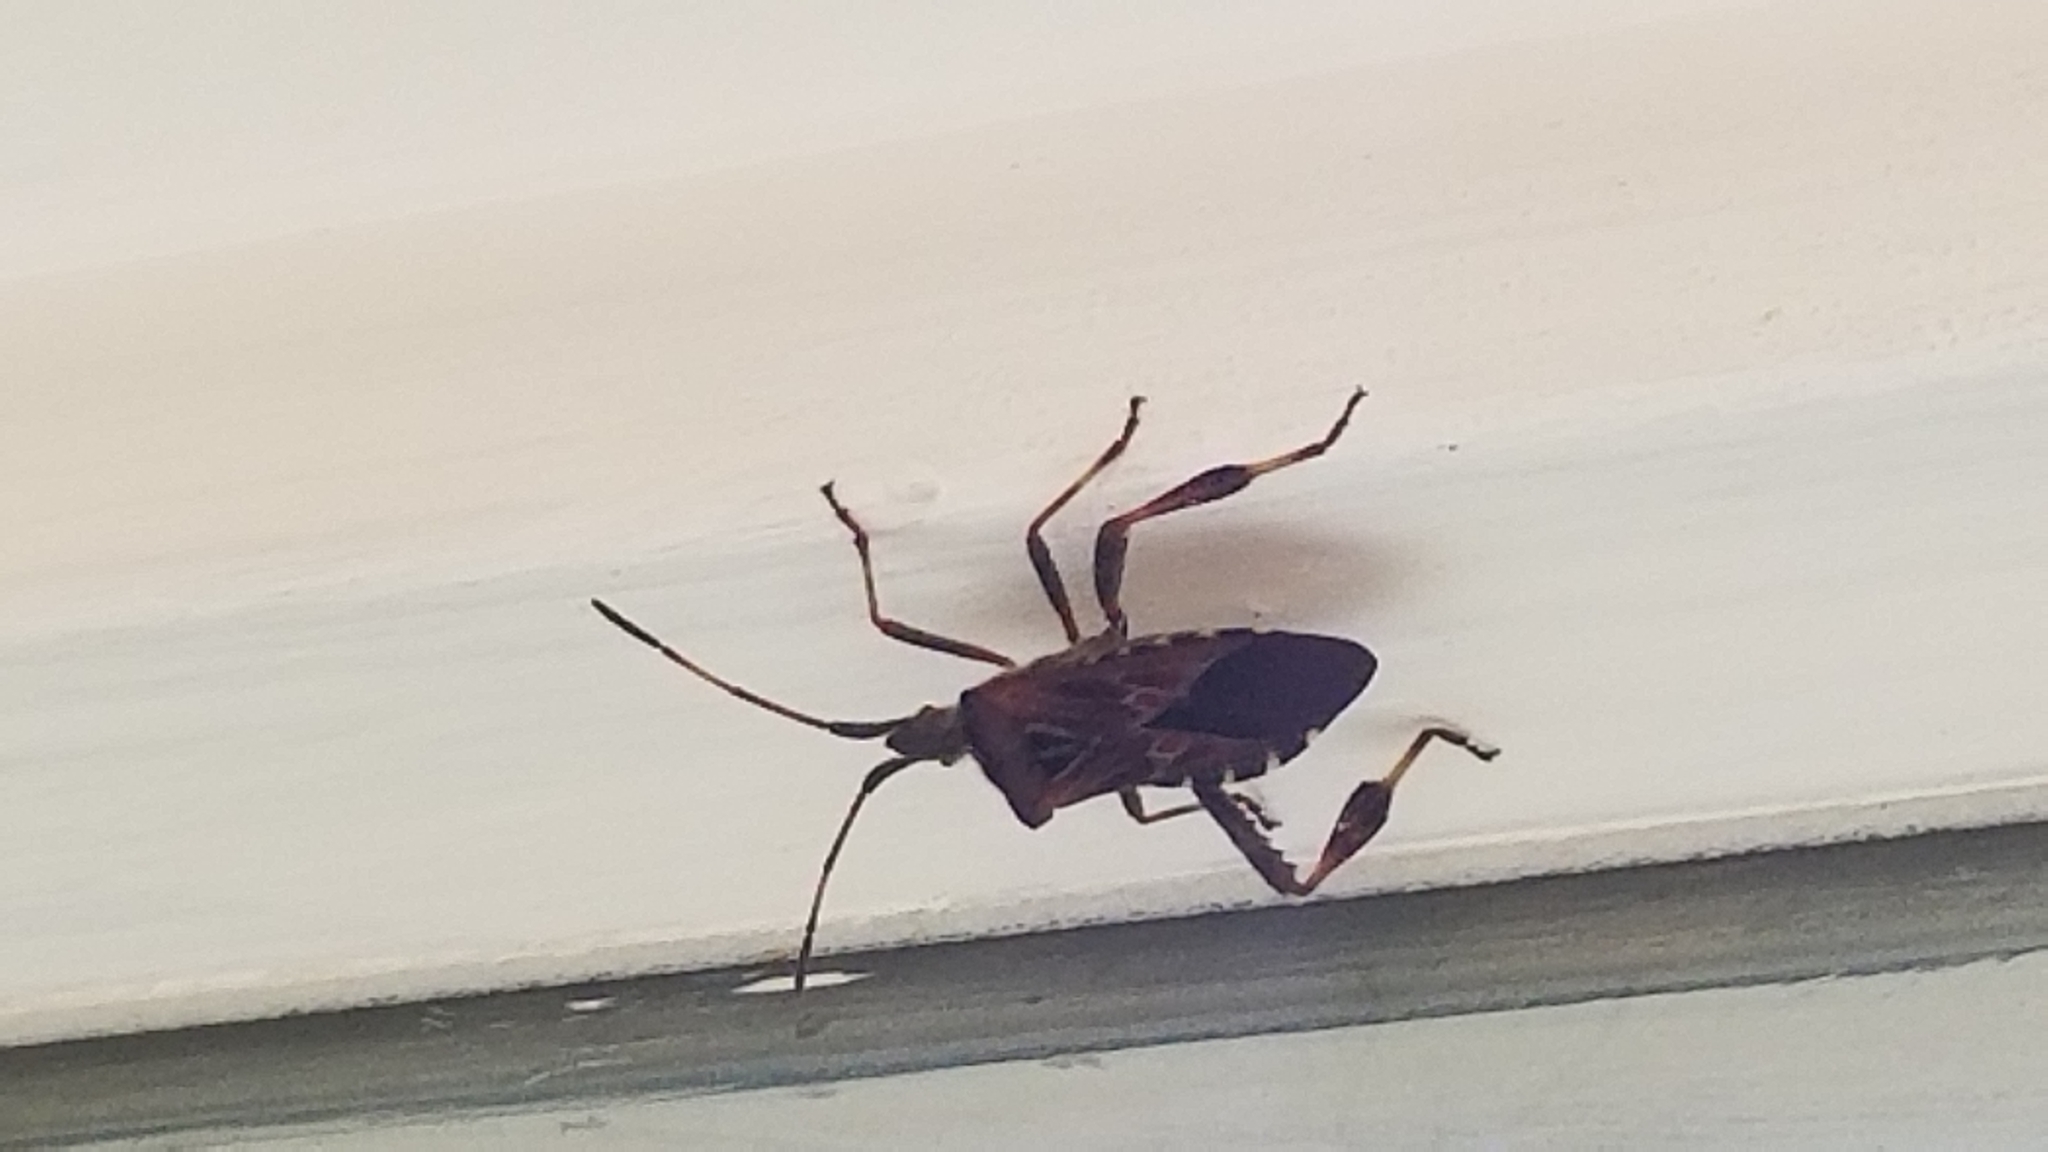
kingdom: Animalia
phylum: Arthropoda
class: Insecta
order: Hemiptera
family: Coreidae
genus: Leptoglossus
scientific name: Leptoglossus occidentalis
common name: Western conifer-seed bug
